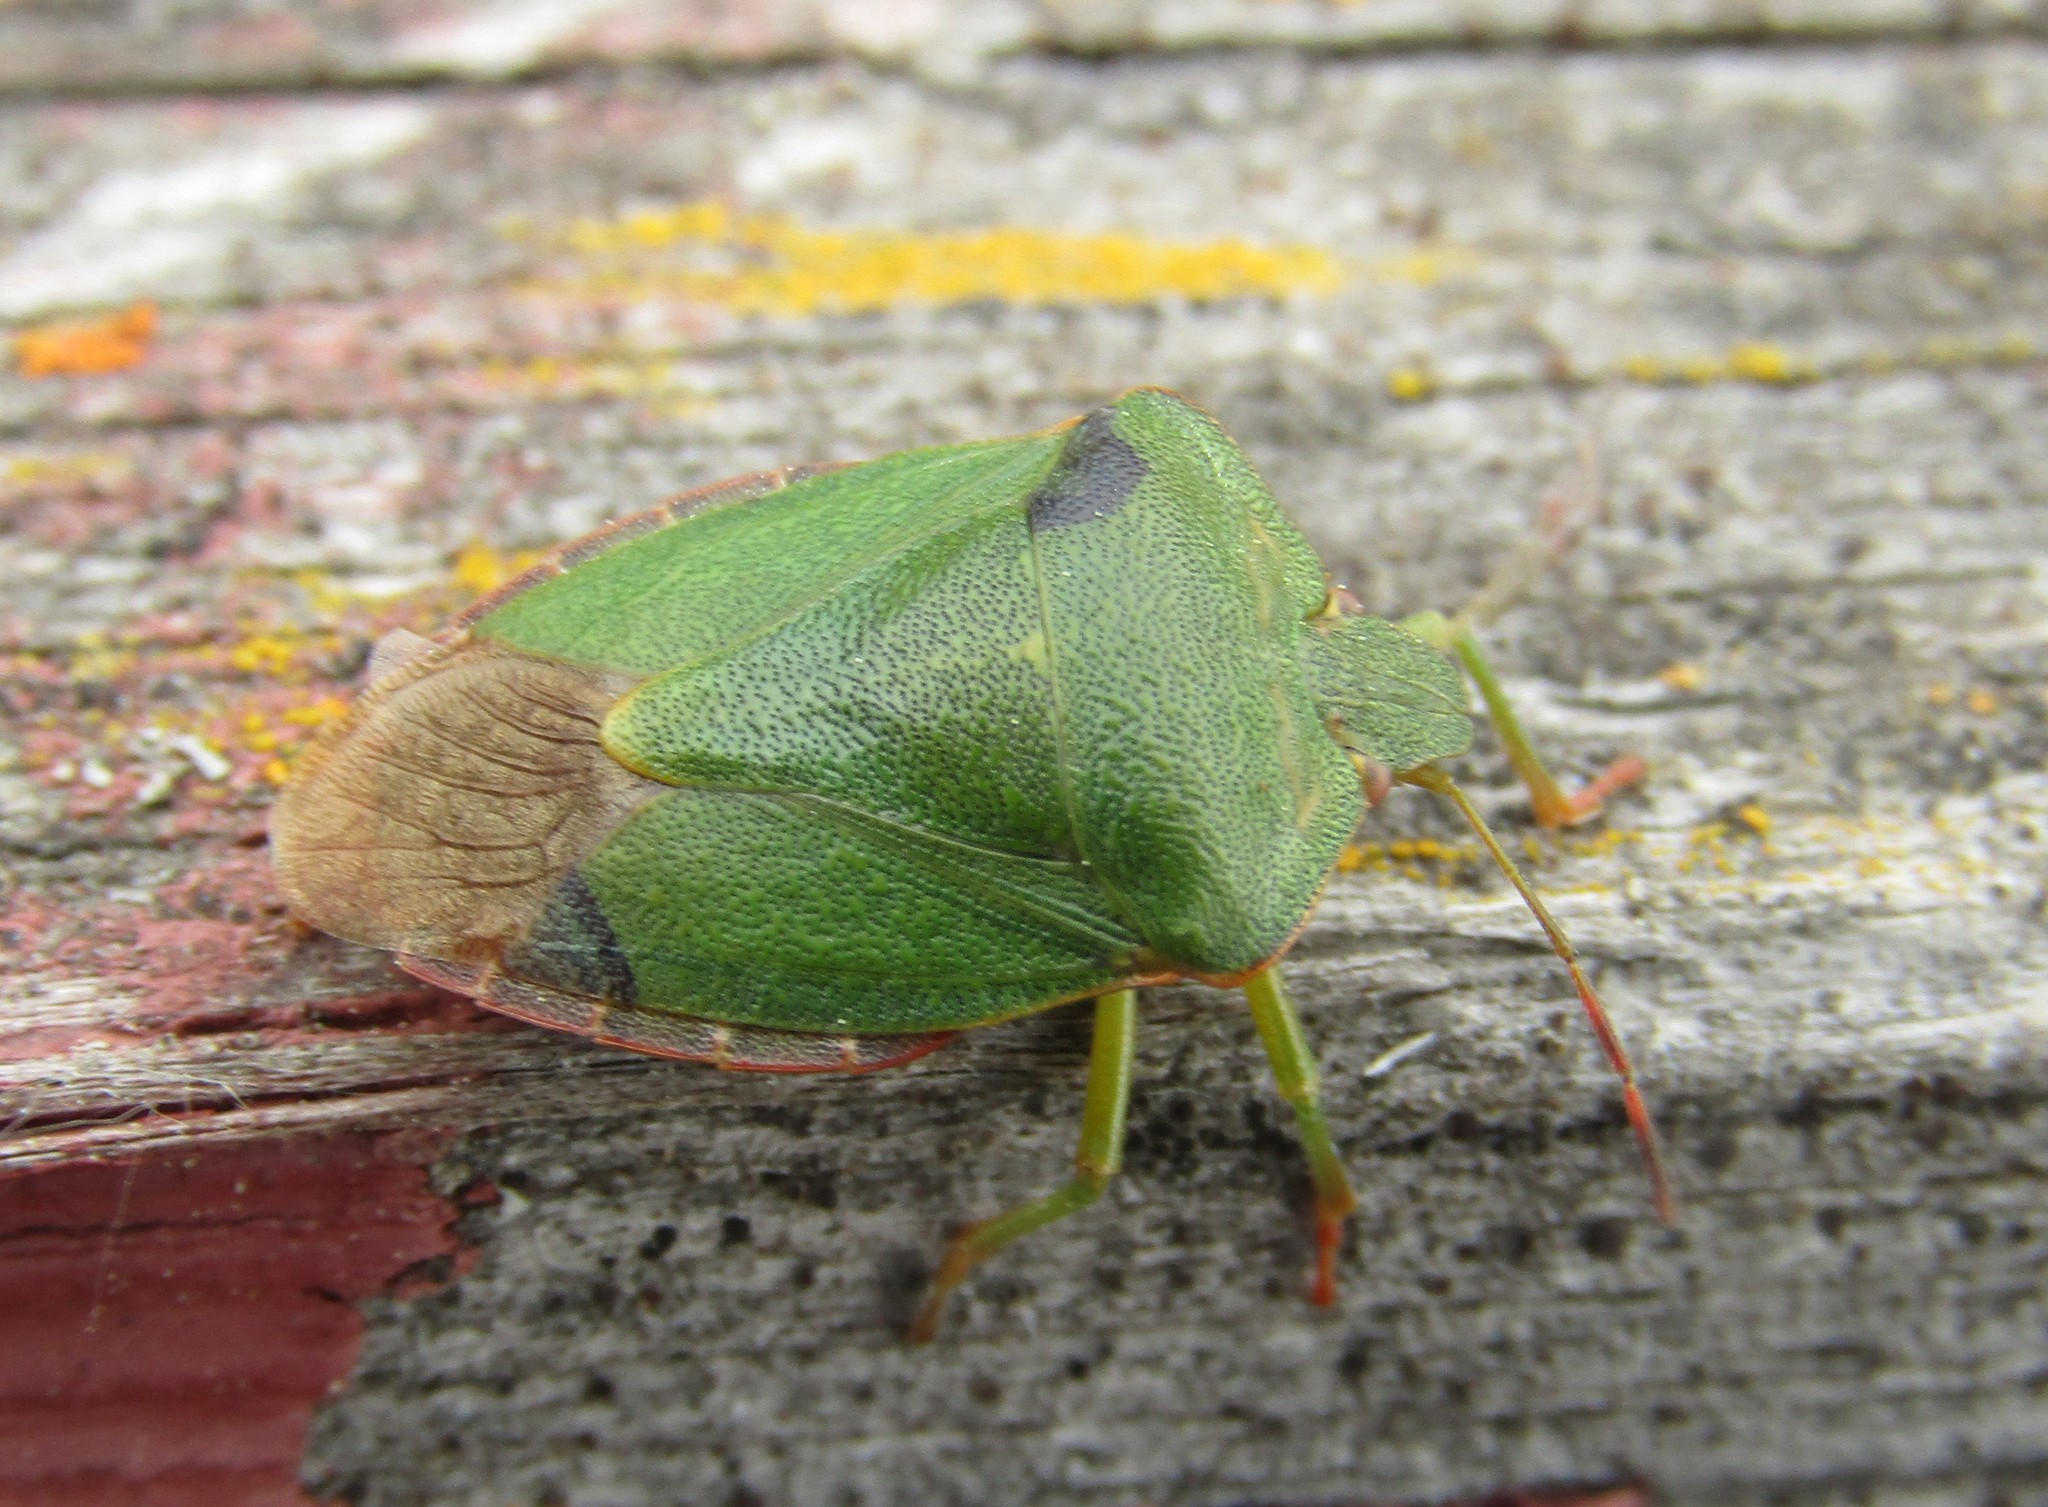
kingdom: Animalia
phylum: Arthropoda
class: Insecta
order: Hemiptera
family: Pentatomidae
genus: Palomena
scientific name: Palomena prasina
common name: Green shieldbug
